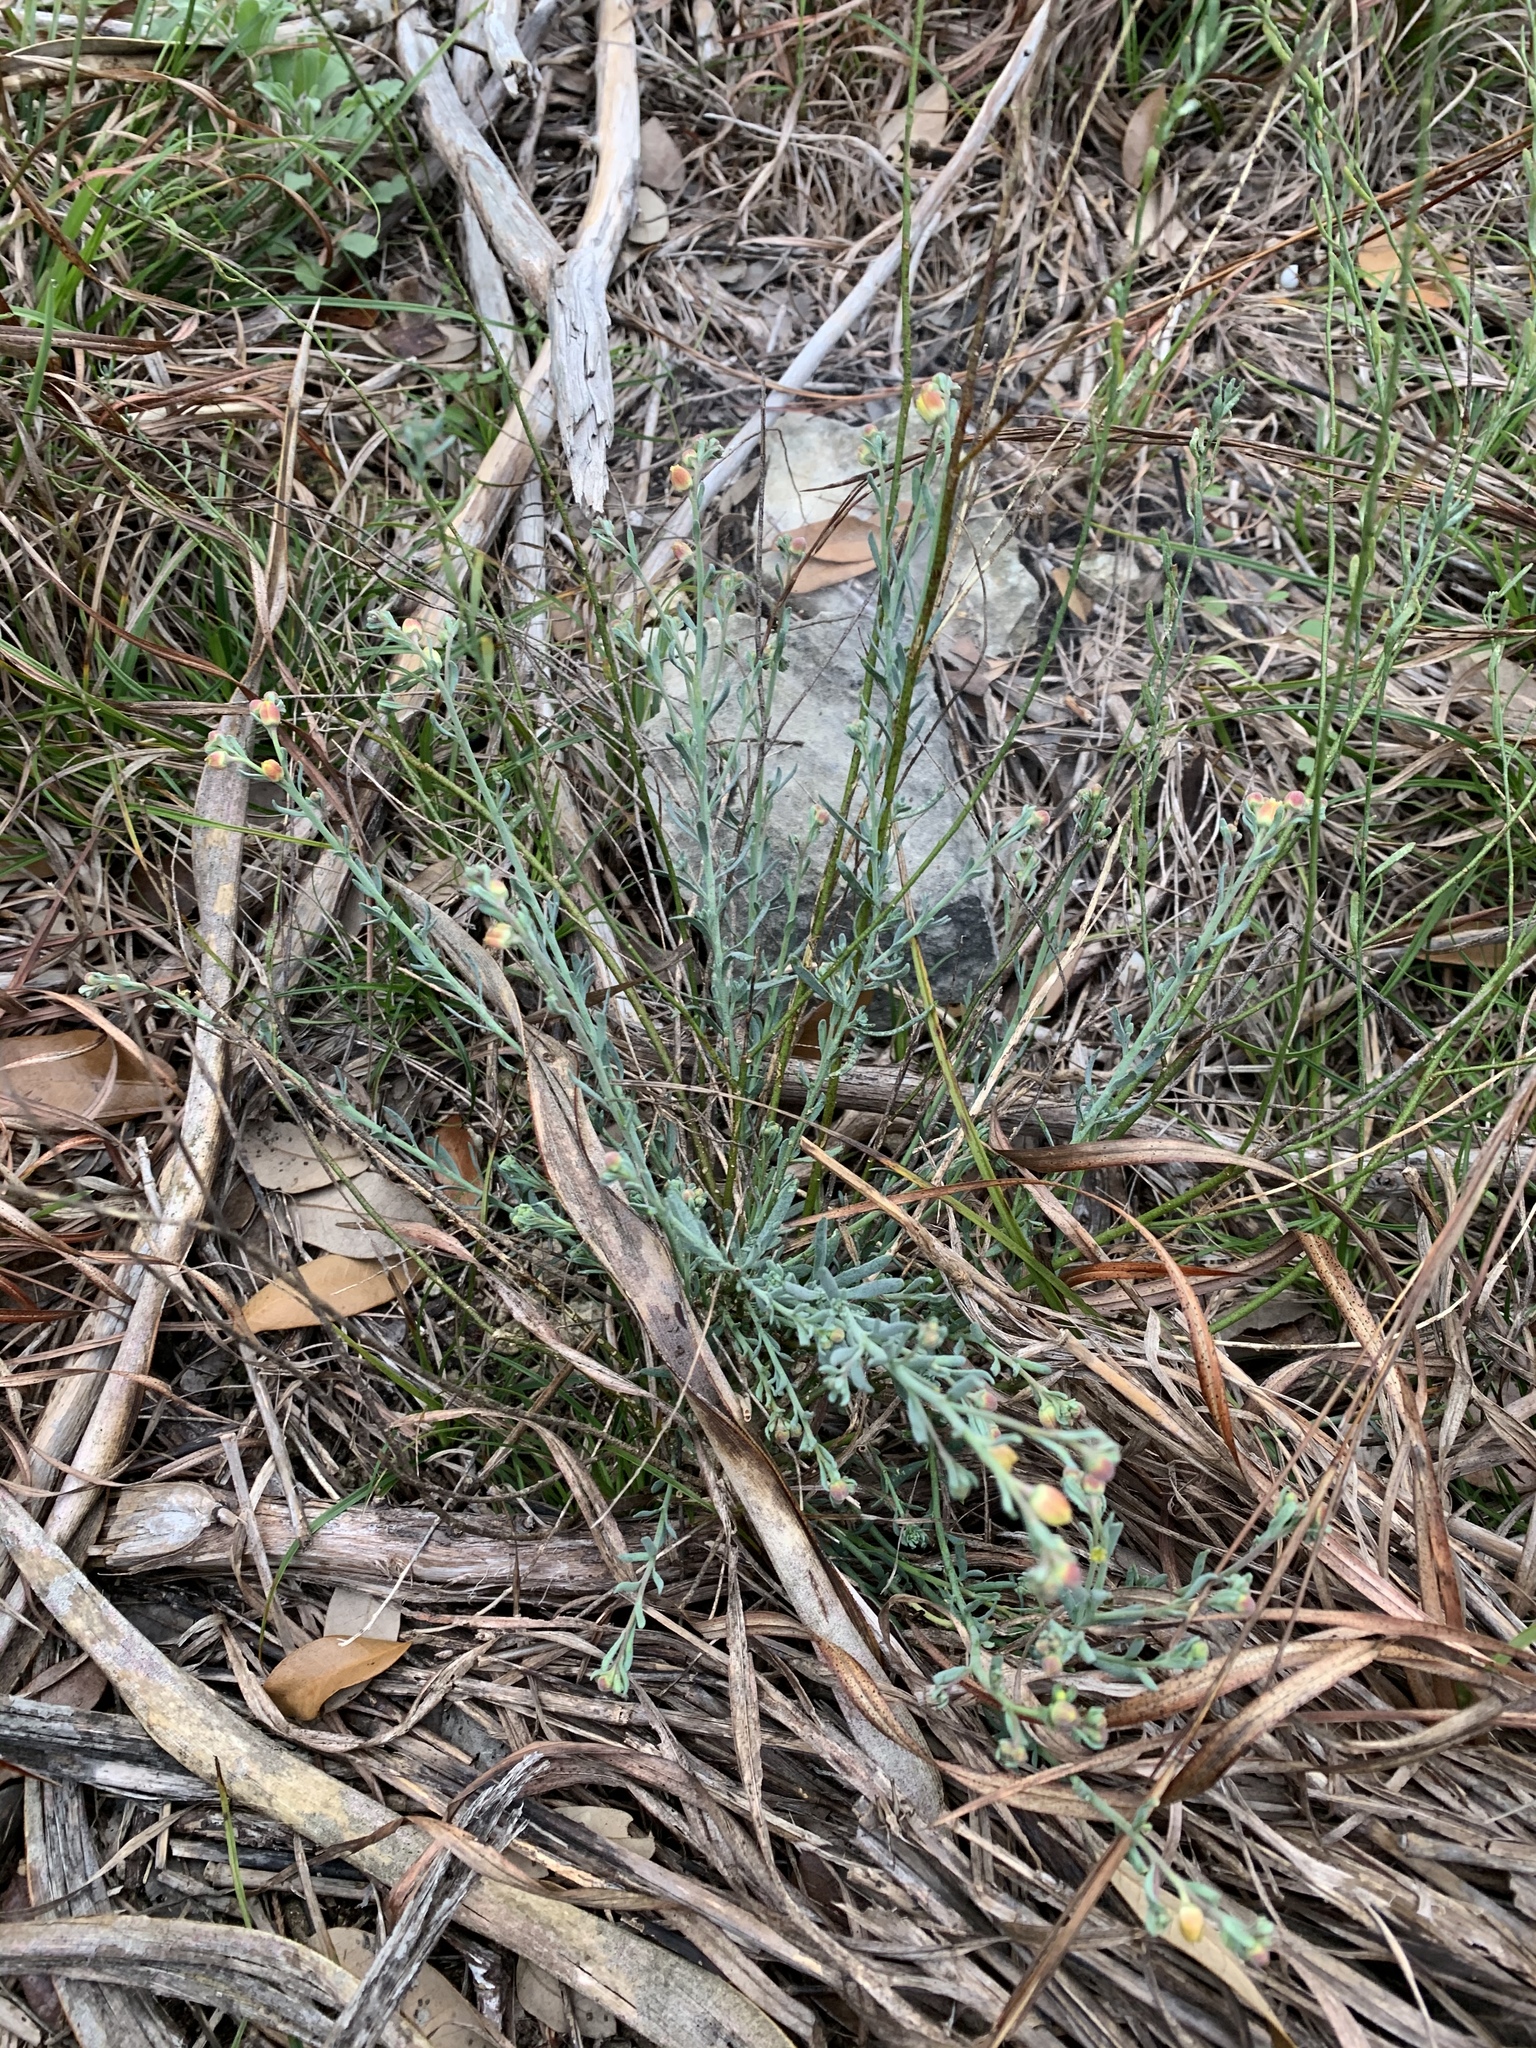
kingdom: Plantae
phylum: Tracheophyta
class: Magnoliopsida
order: Sapindales
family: Rutaceae
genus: Thamnosma
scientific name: Thamnosma texana
